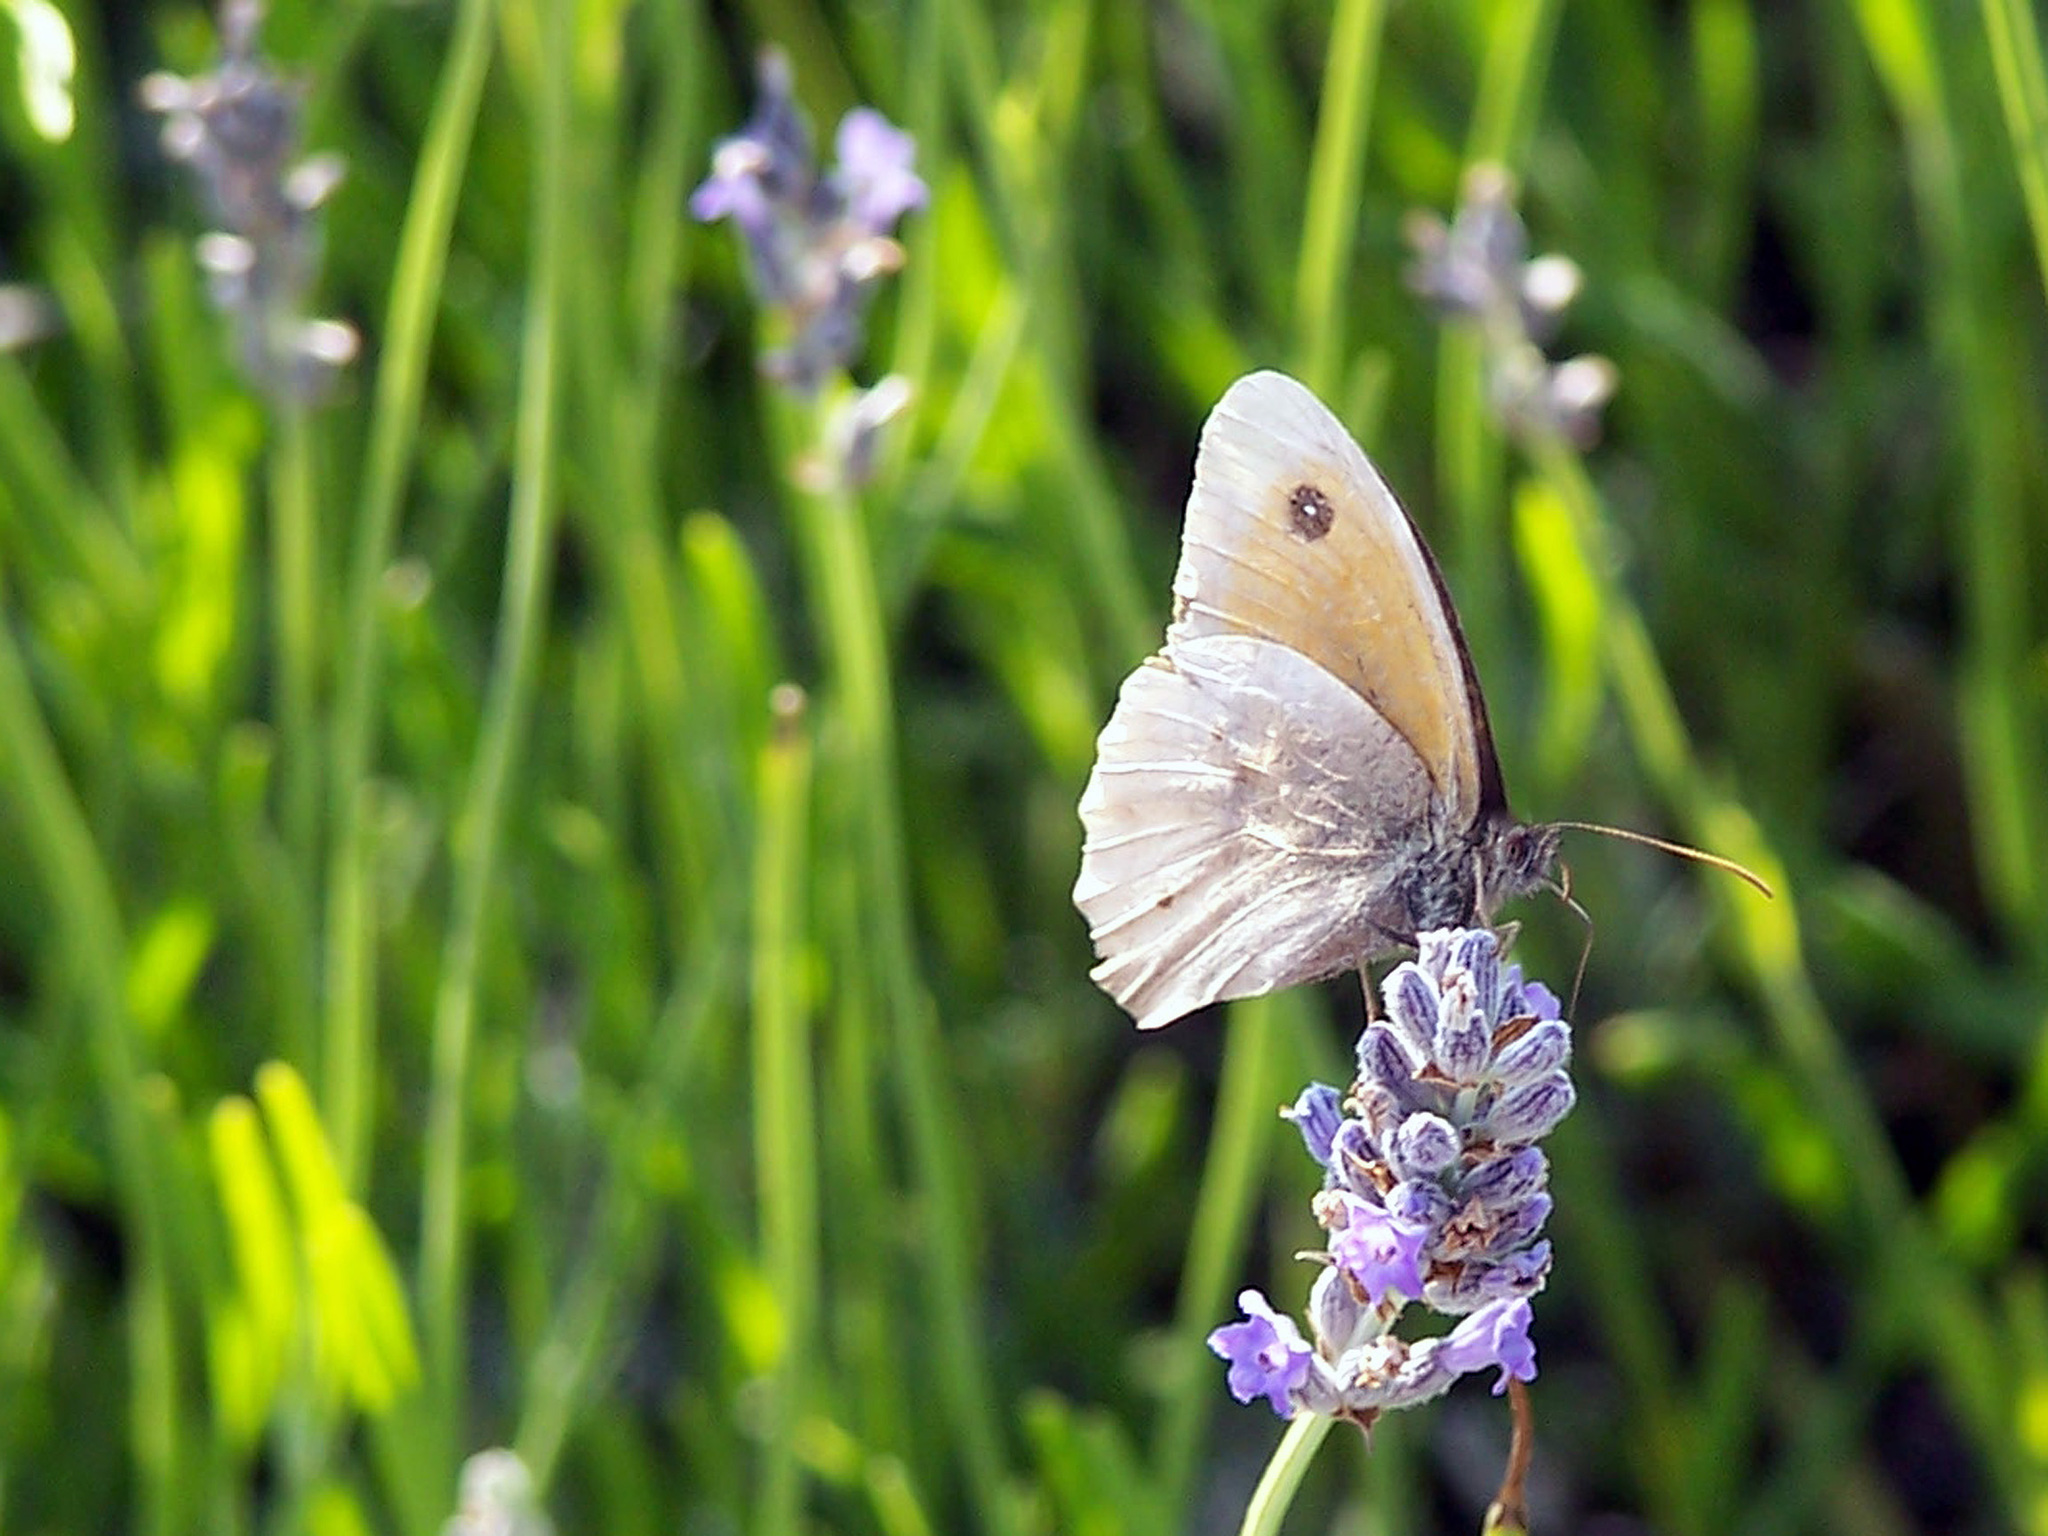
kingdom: Animalia
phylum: Arthropoda
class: Insecta
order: Lepidoptera
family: Nymphalidae
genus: Maniola
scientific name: Maniola jurtina
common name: Meadow brown
